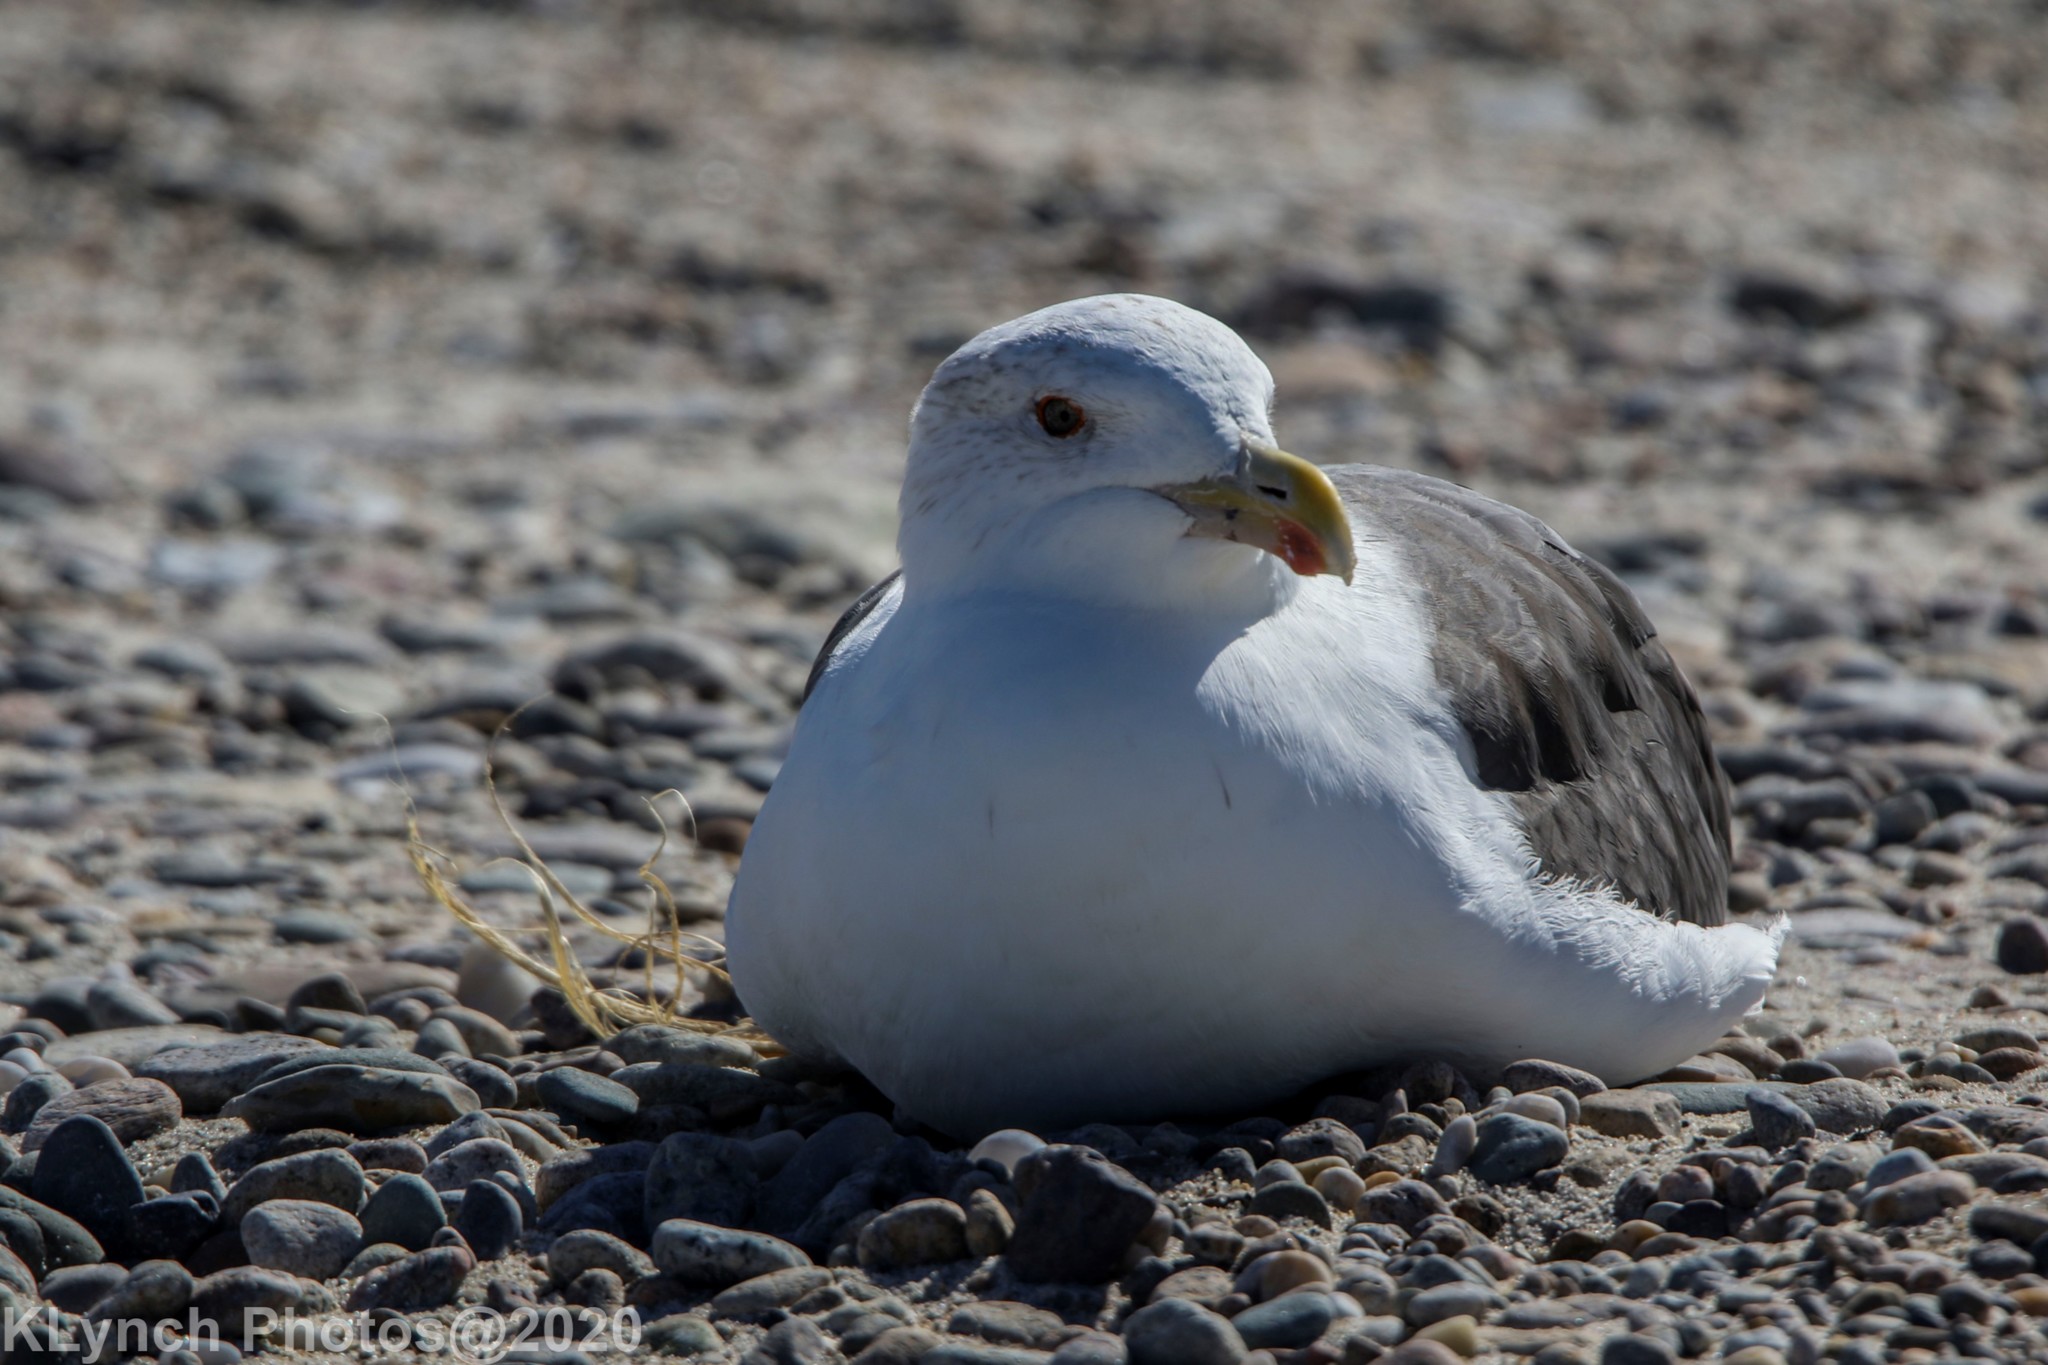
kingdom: Animalia
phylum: Chordata
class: Aves
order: Charadriiformes
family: Laridae
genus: Larus
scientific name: Larus marinus
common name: Great black-backed gull
